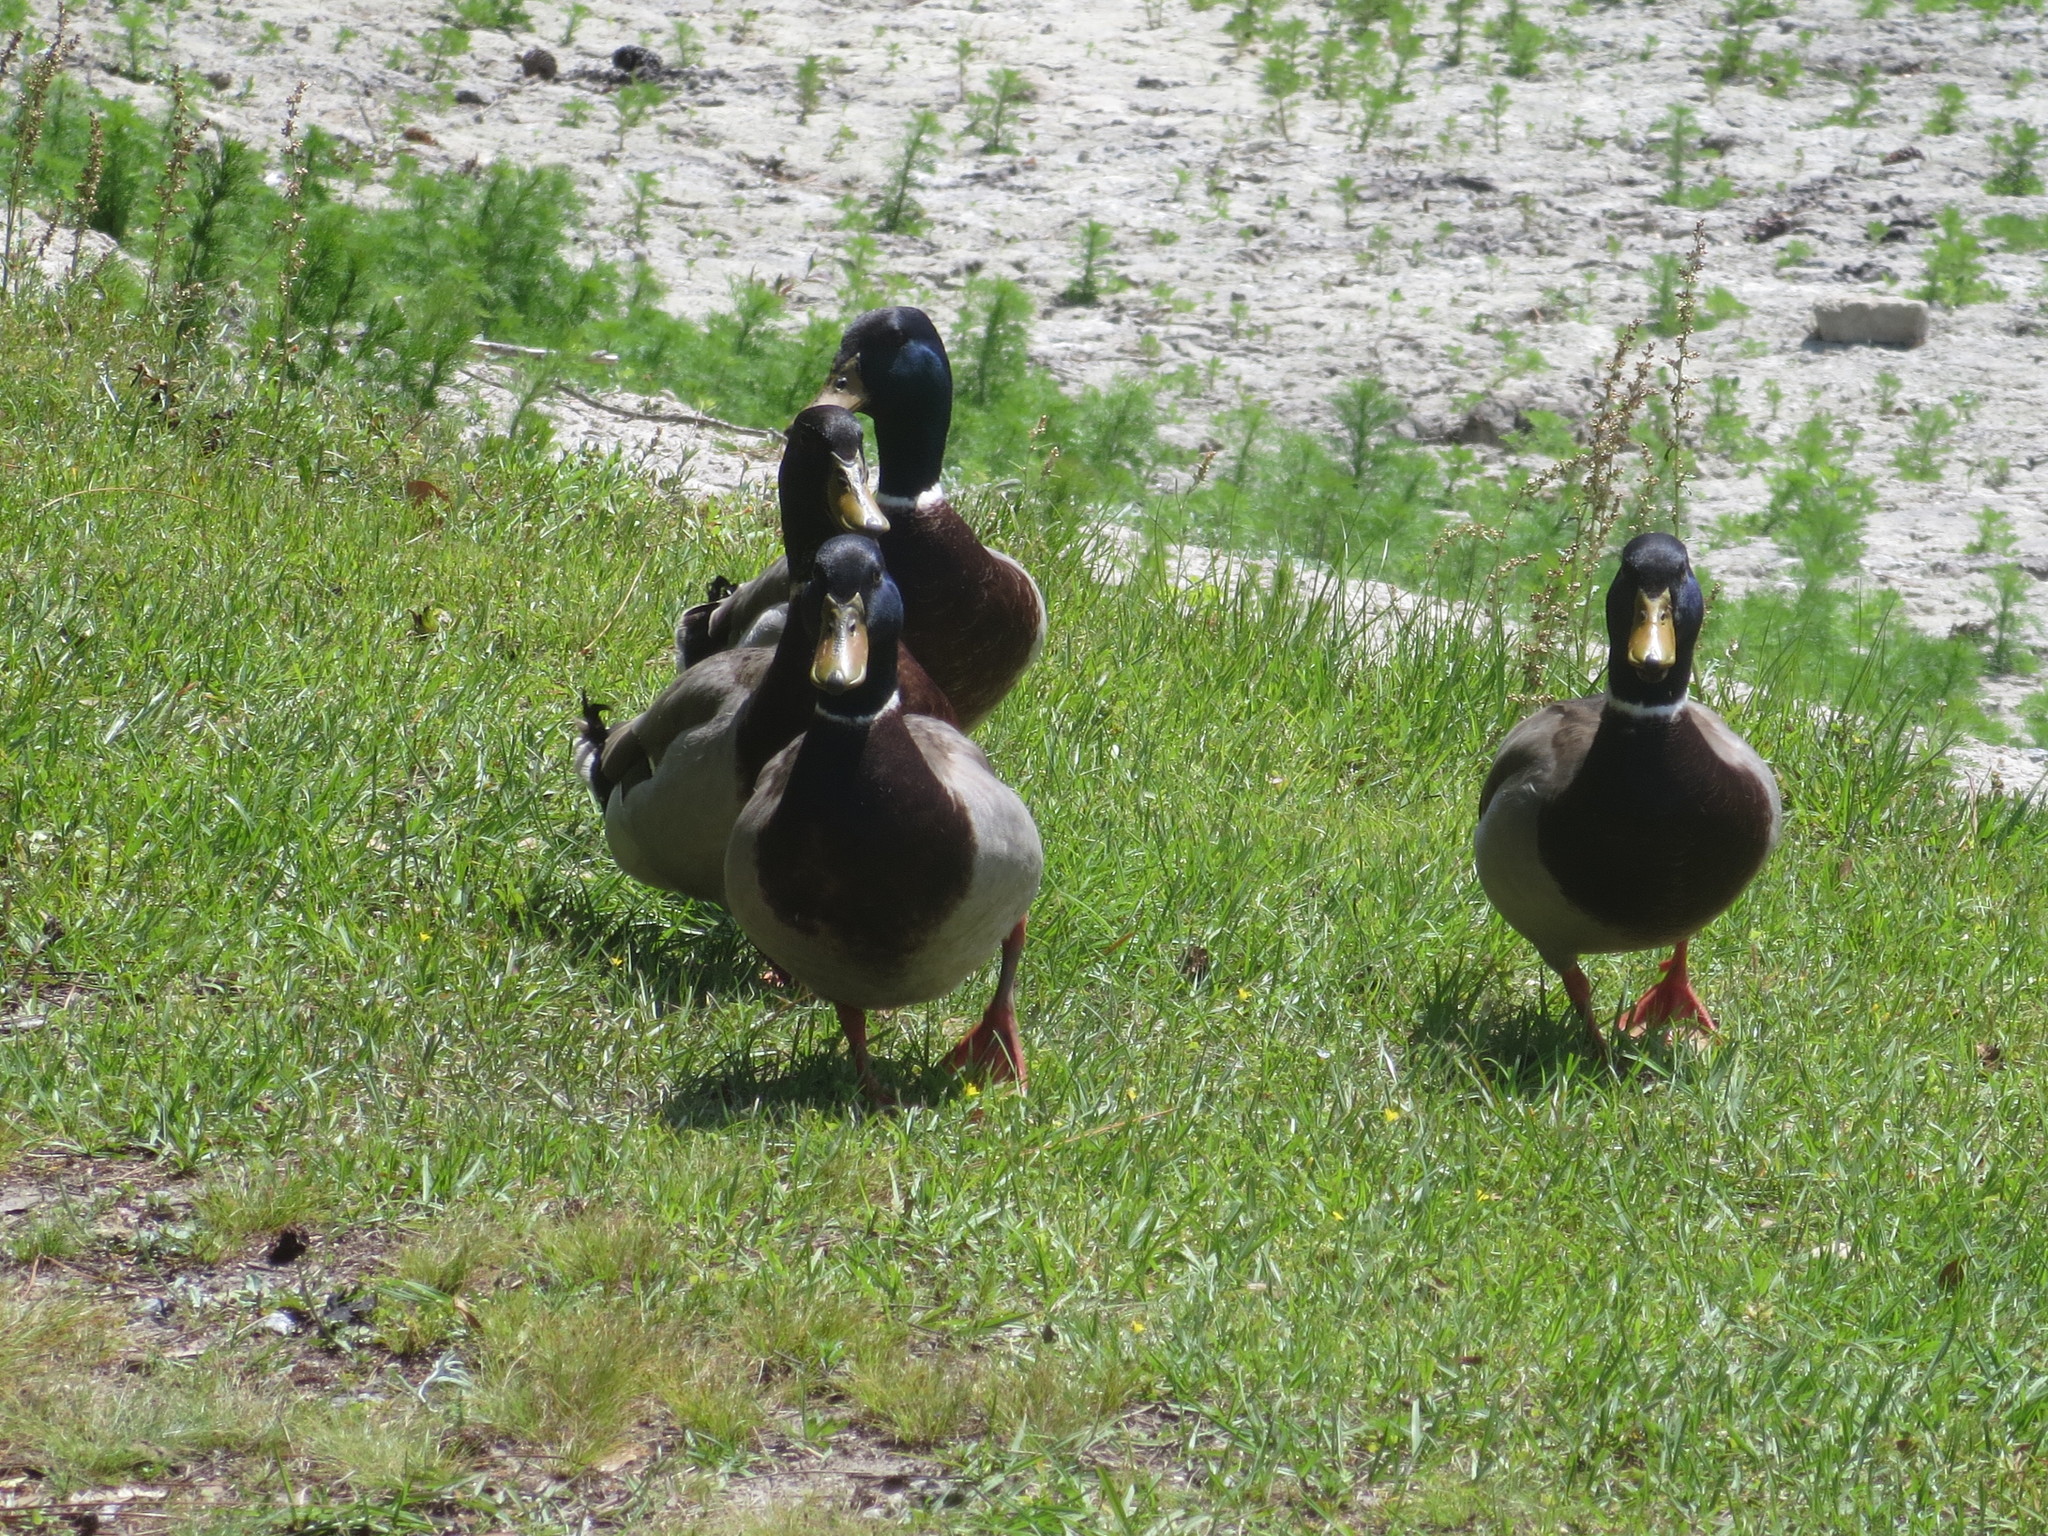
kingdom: Animalia
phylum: Chordata
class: Aves
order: Anseriformes
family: Anatidae
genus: Anas
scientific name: Anas platyrhynchos
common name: Mallard
